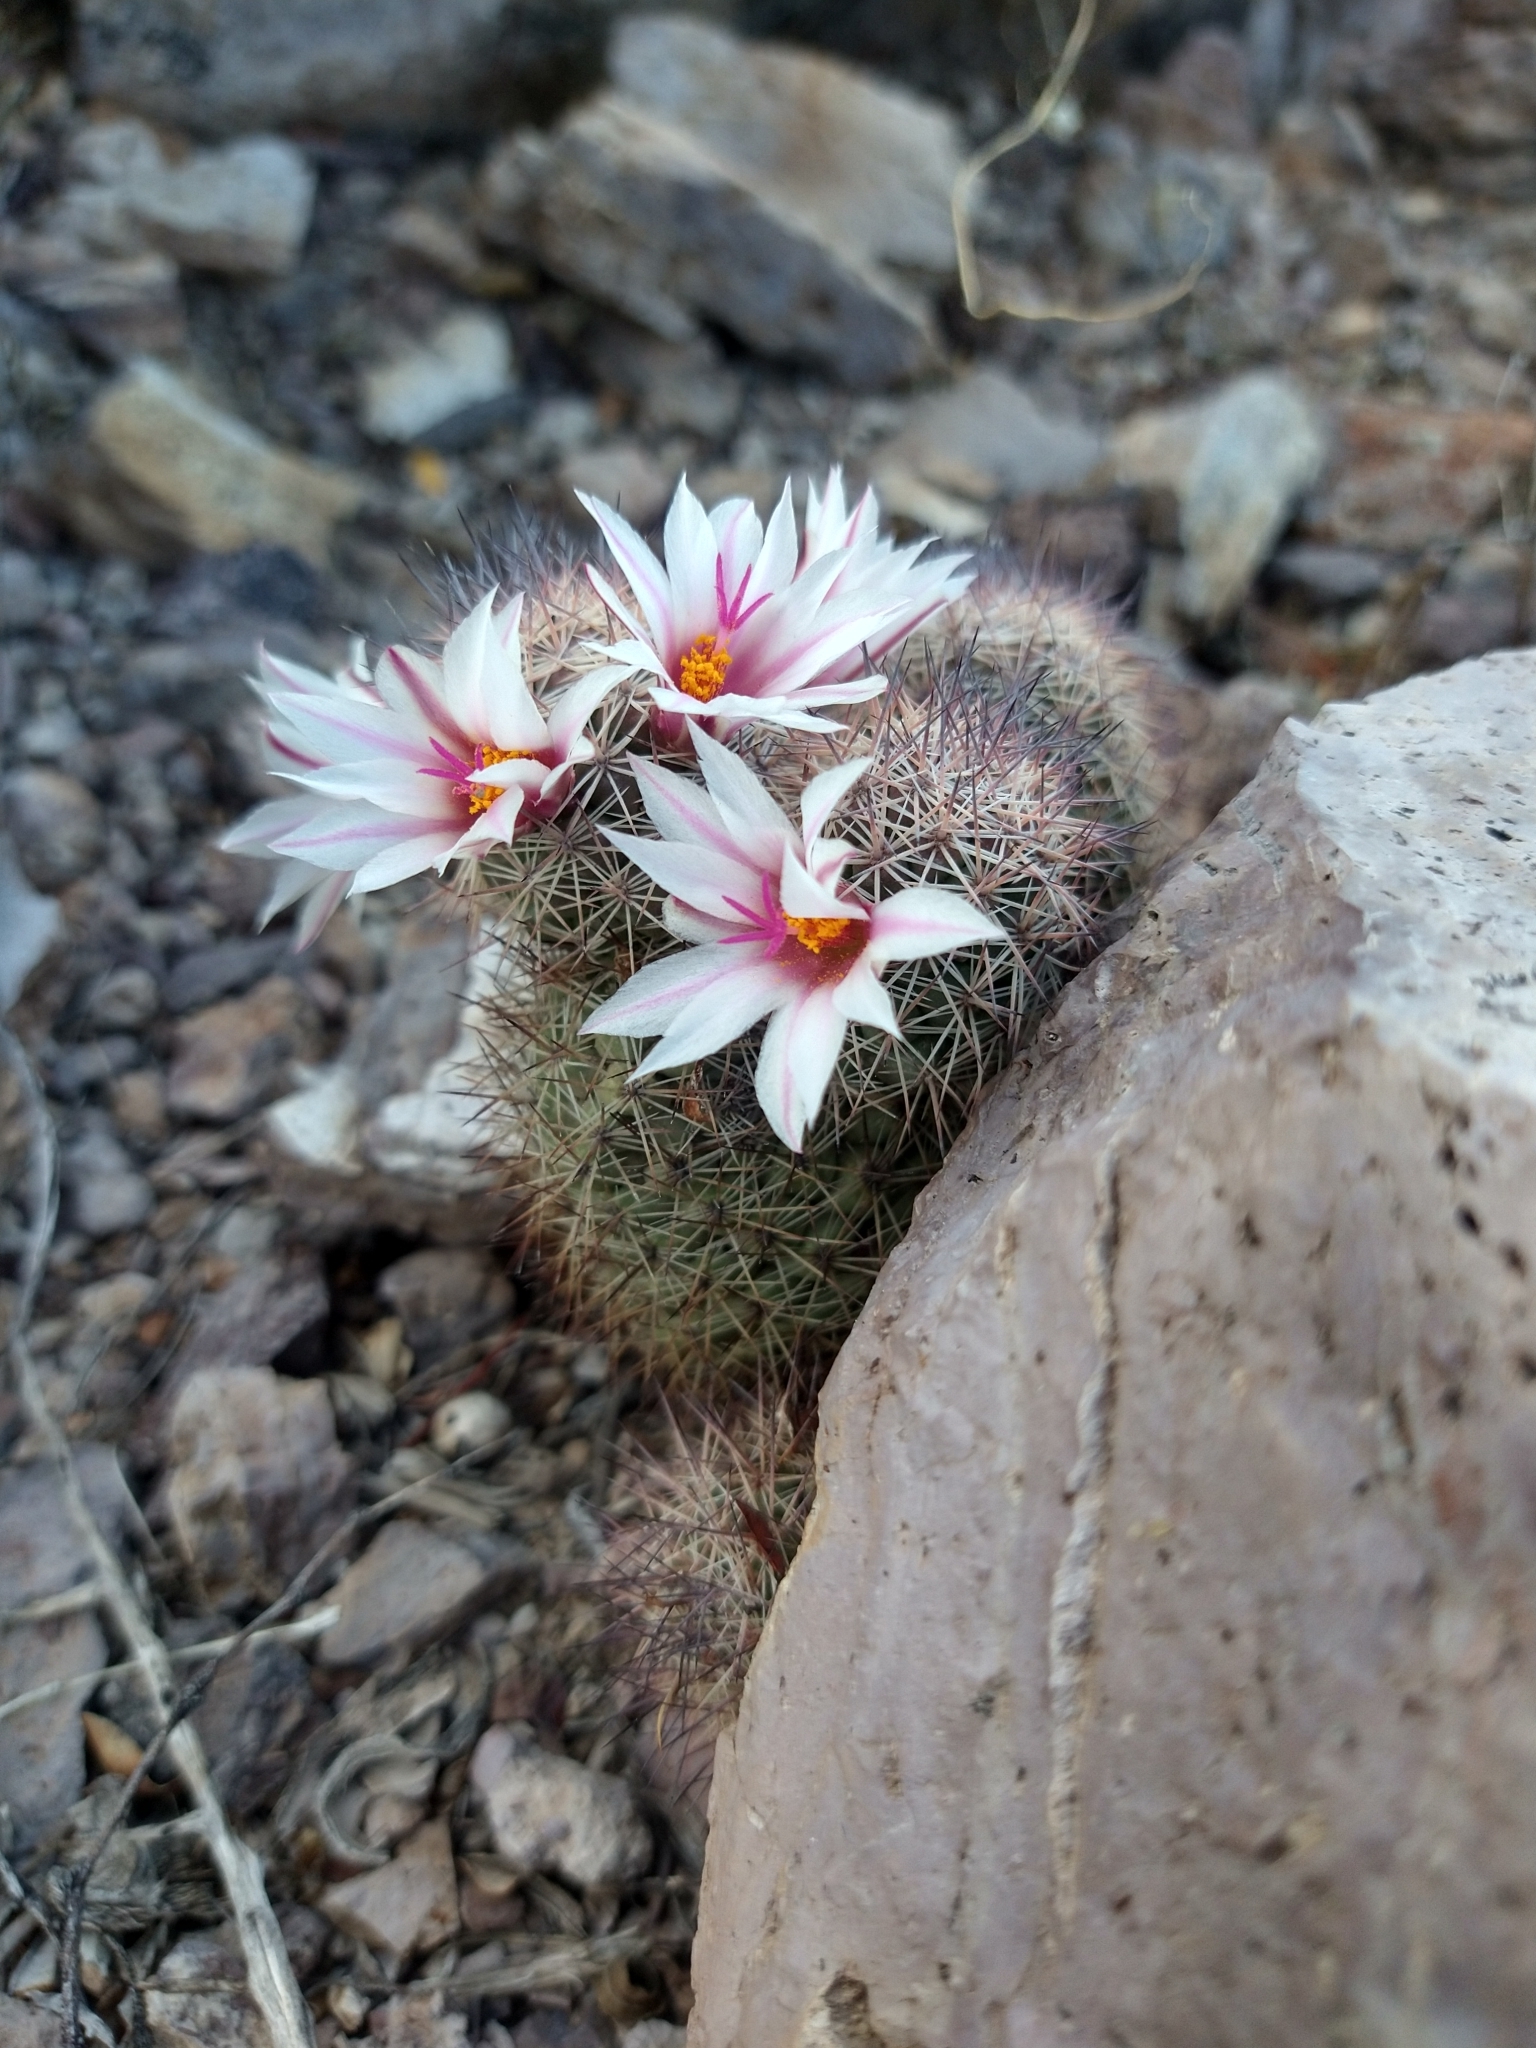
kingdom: Plantae
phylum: Tracheophyta
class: Magnoliopsida
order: Caryophyllales
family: Cactaceae
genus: Cochemiea
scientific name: Cochemiea fraileana
